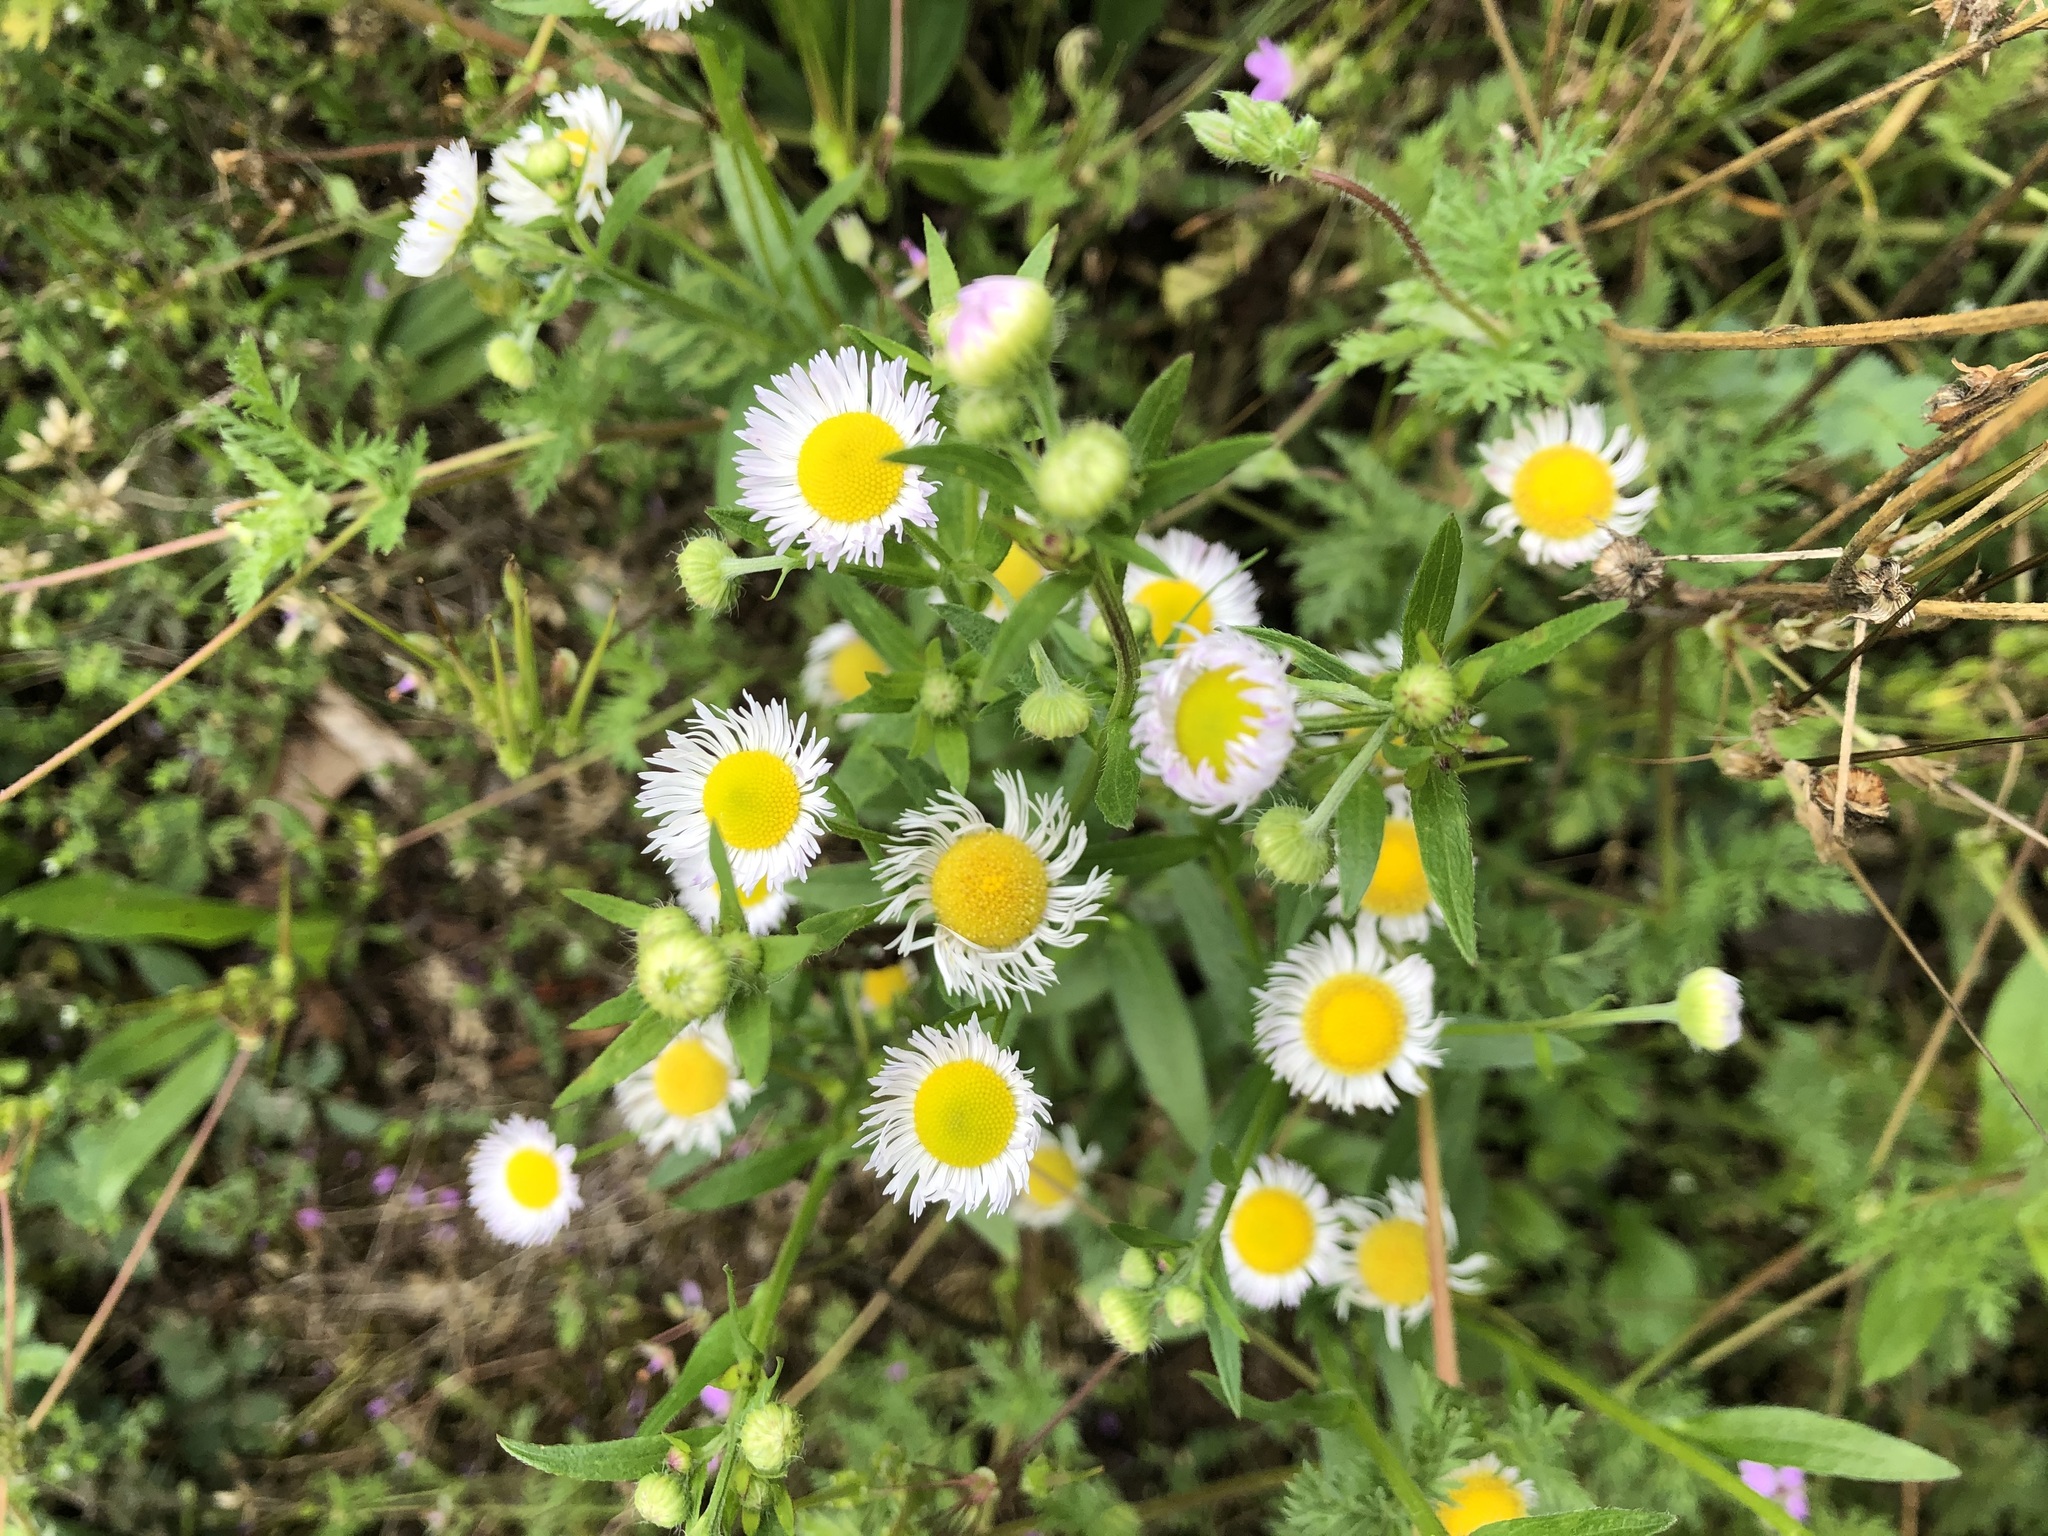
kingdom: Plantae
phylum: Tracheophyta
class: Magnoliopsida
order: Asterales
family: Asteraceae
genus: Erigeron
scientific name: Erigeron annuus
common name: Tall fleabane
